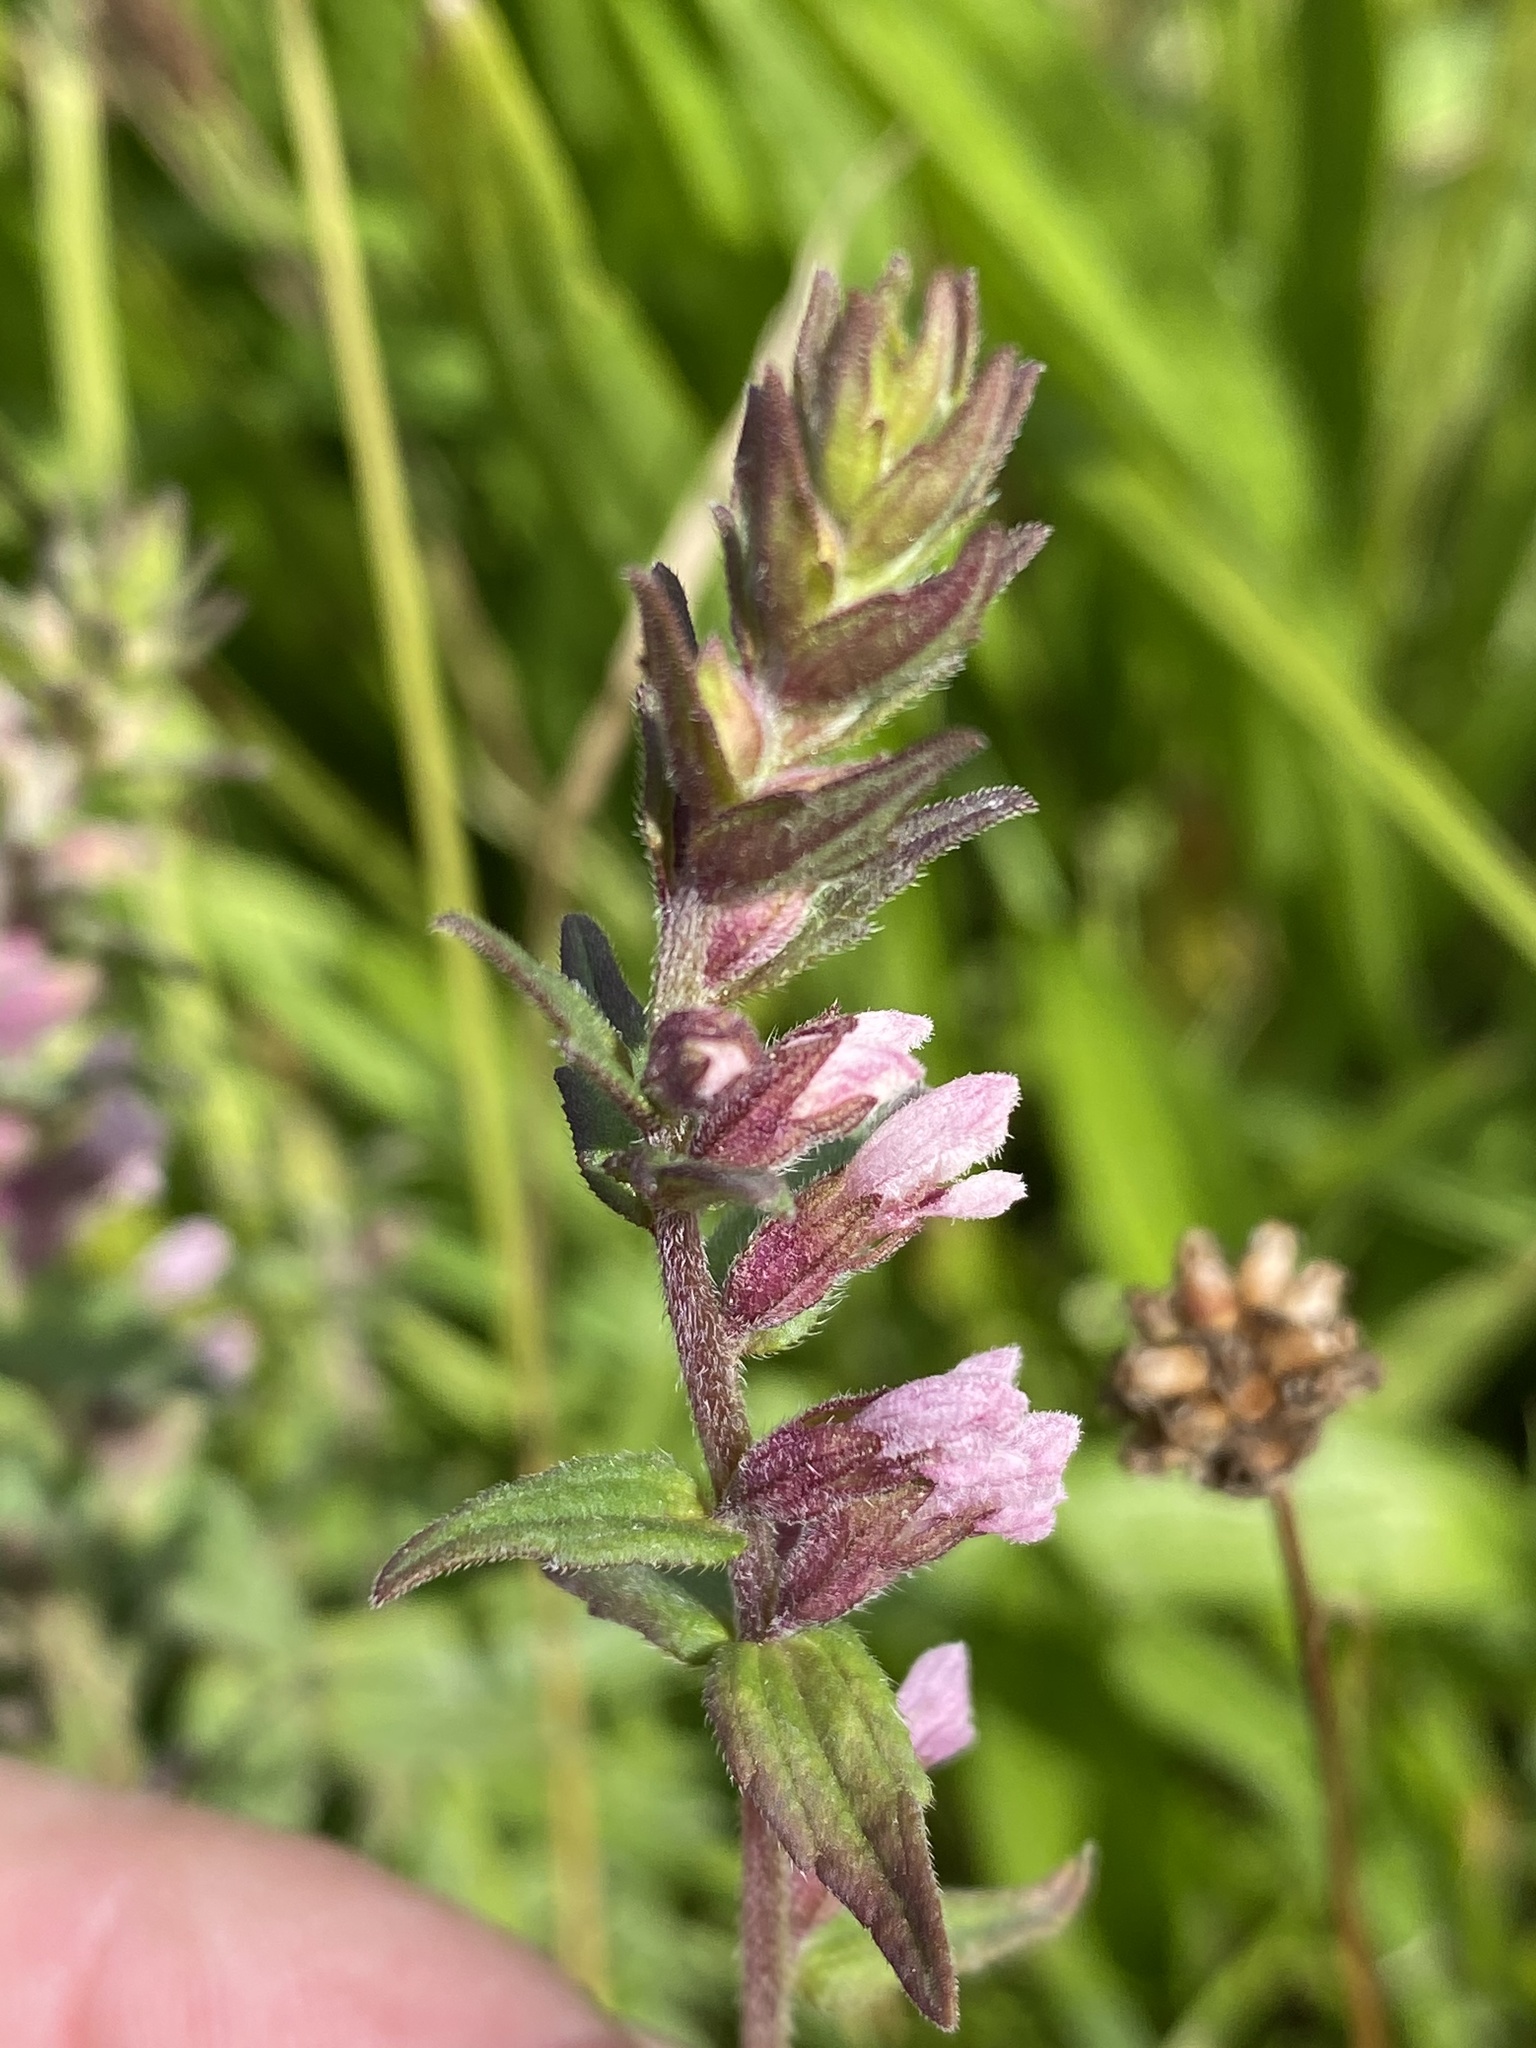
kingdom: Plantae
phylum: Tracheophyta
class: Magnoliopsida
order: Lamiales
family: Orobanchaceae
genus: Odontites
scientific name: Odontites vernus
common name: Red bartsia
